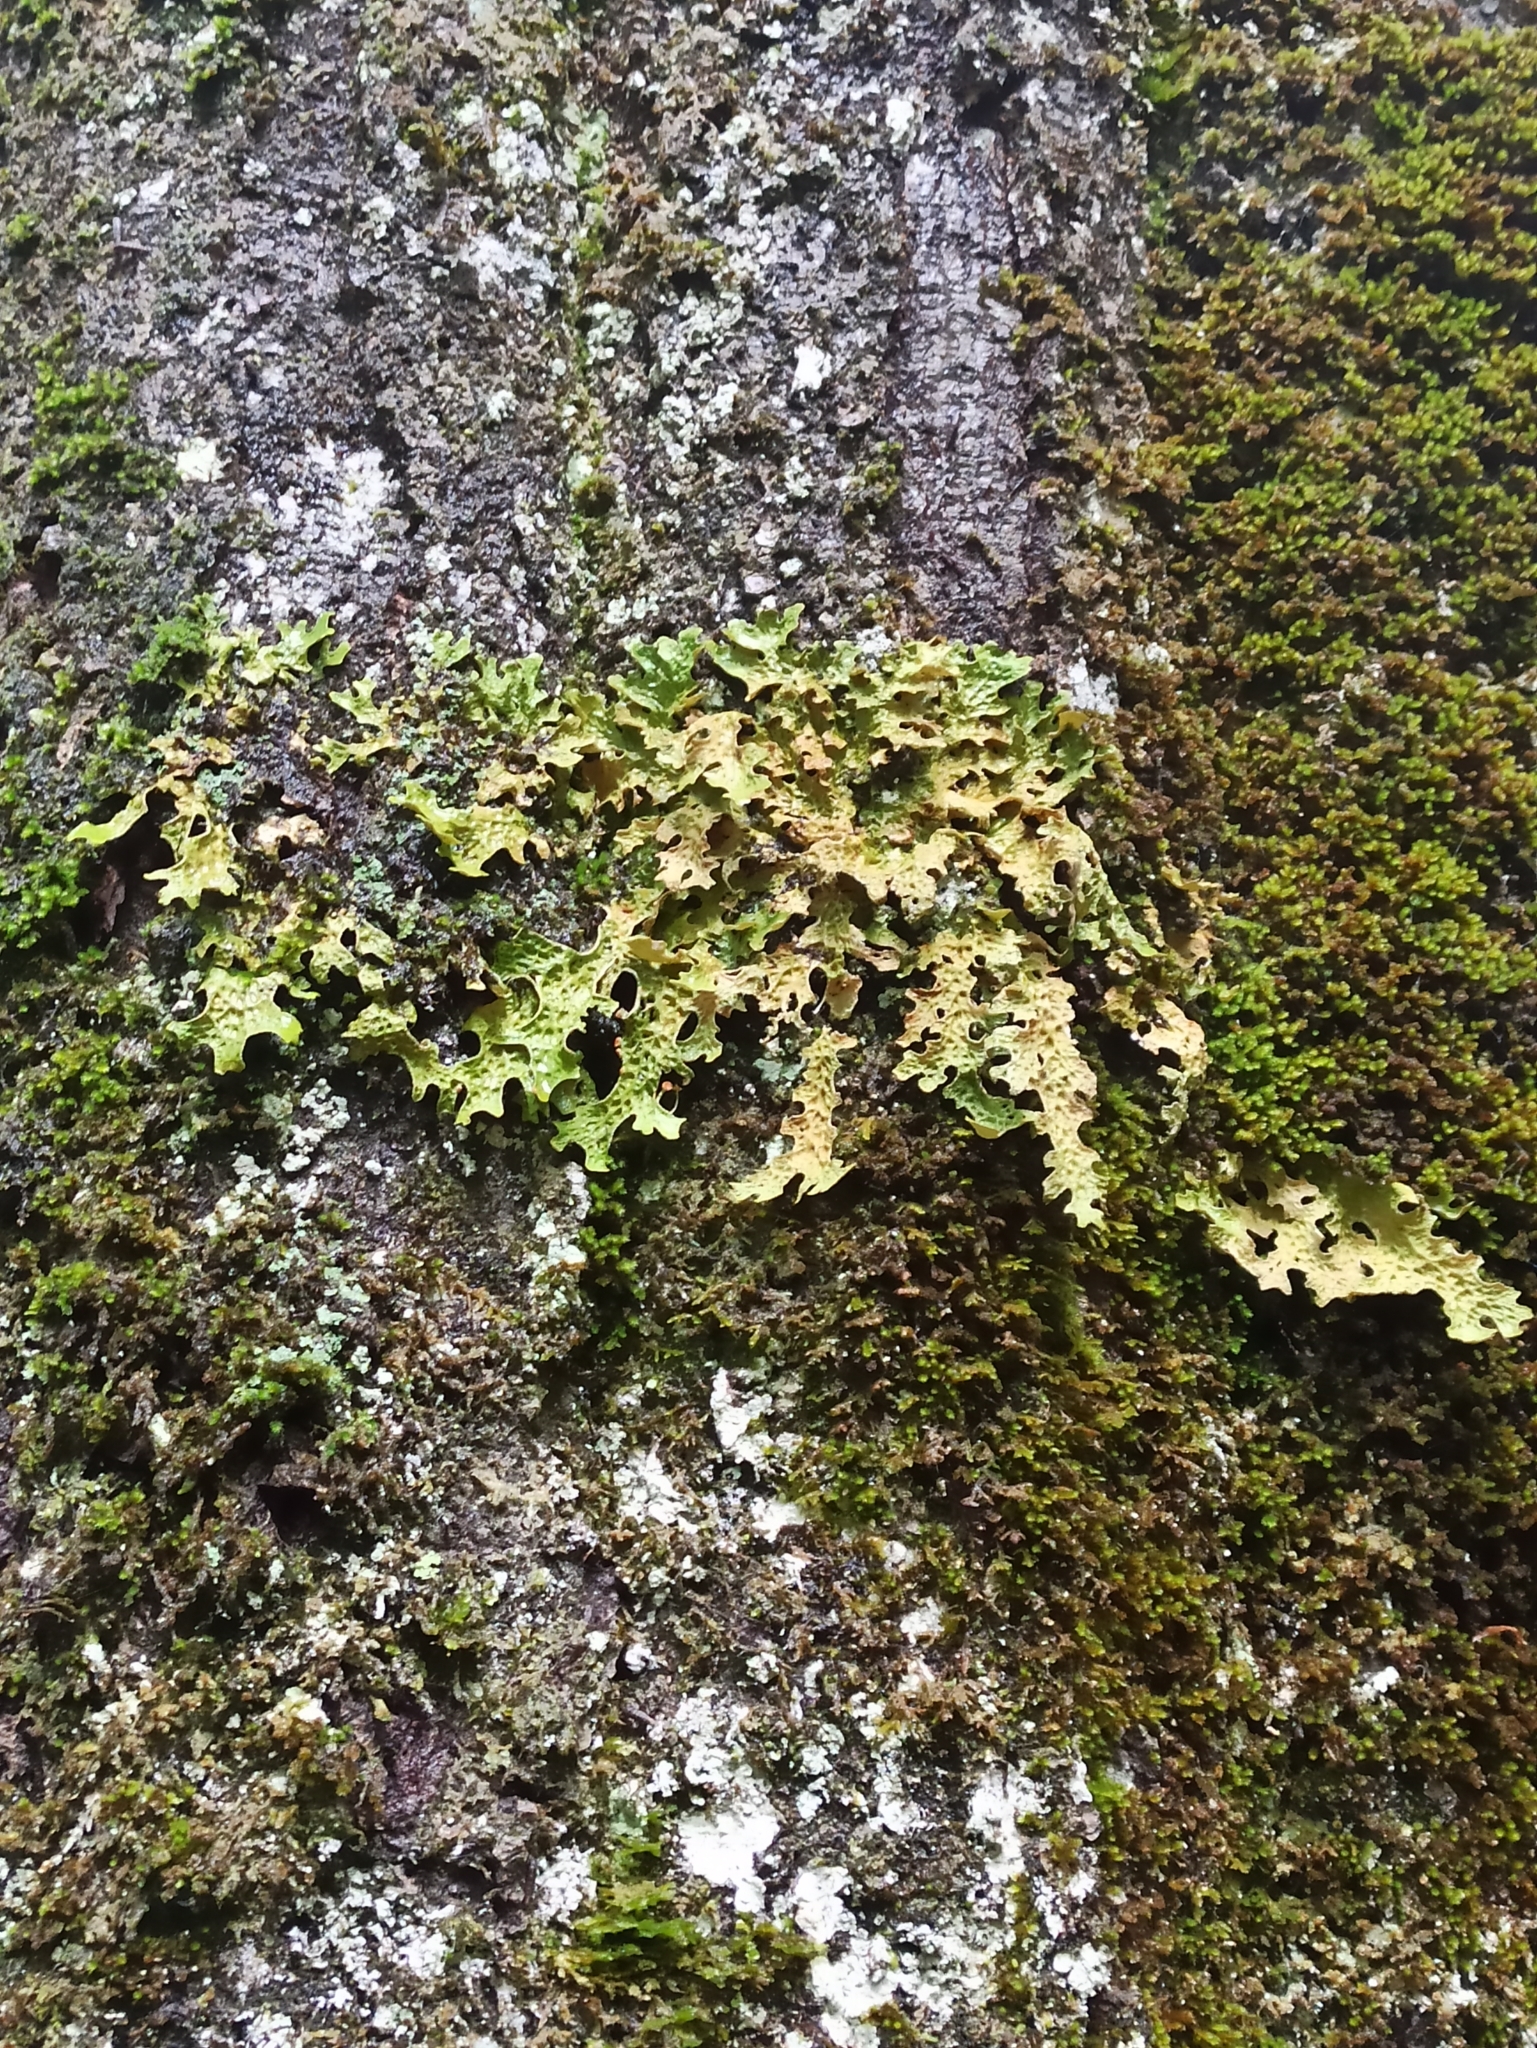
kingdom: Fungi
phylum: Ascomycota
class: Lecanoromycetes
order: Peltigerales
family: Lobariaceae
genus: Lobaria
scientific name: Lobaria pulmonaria
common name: Lungwort
